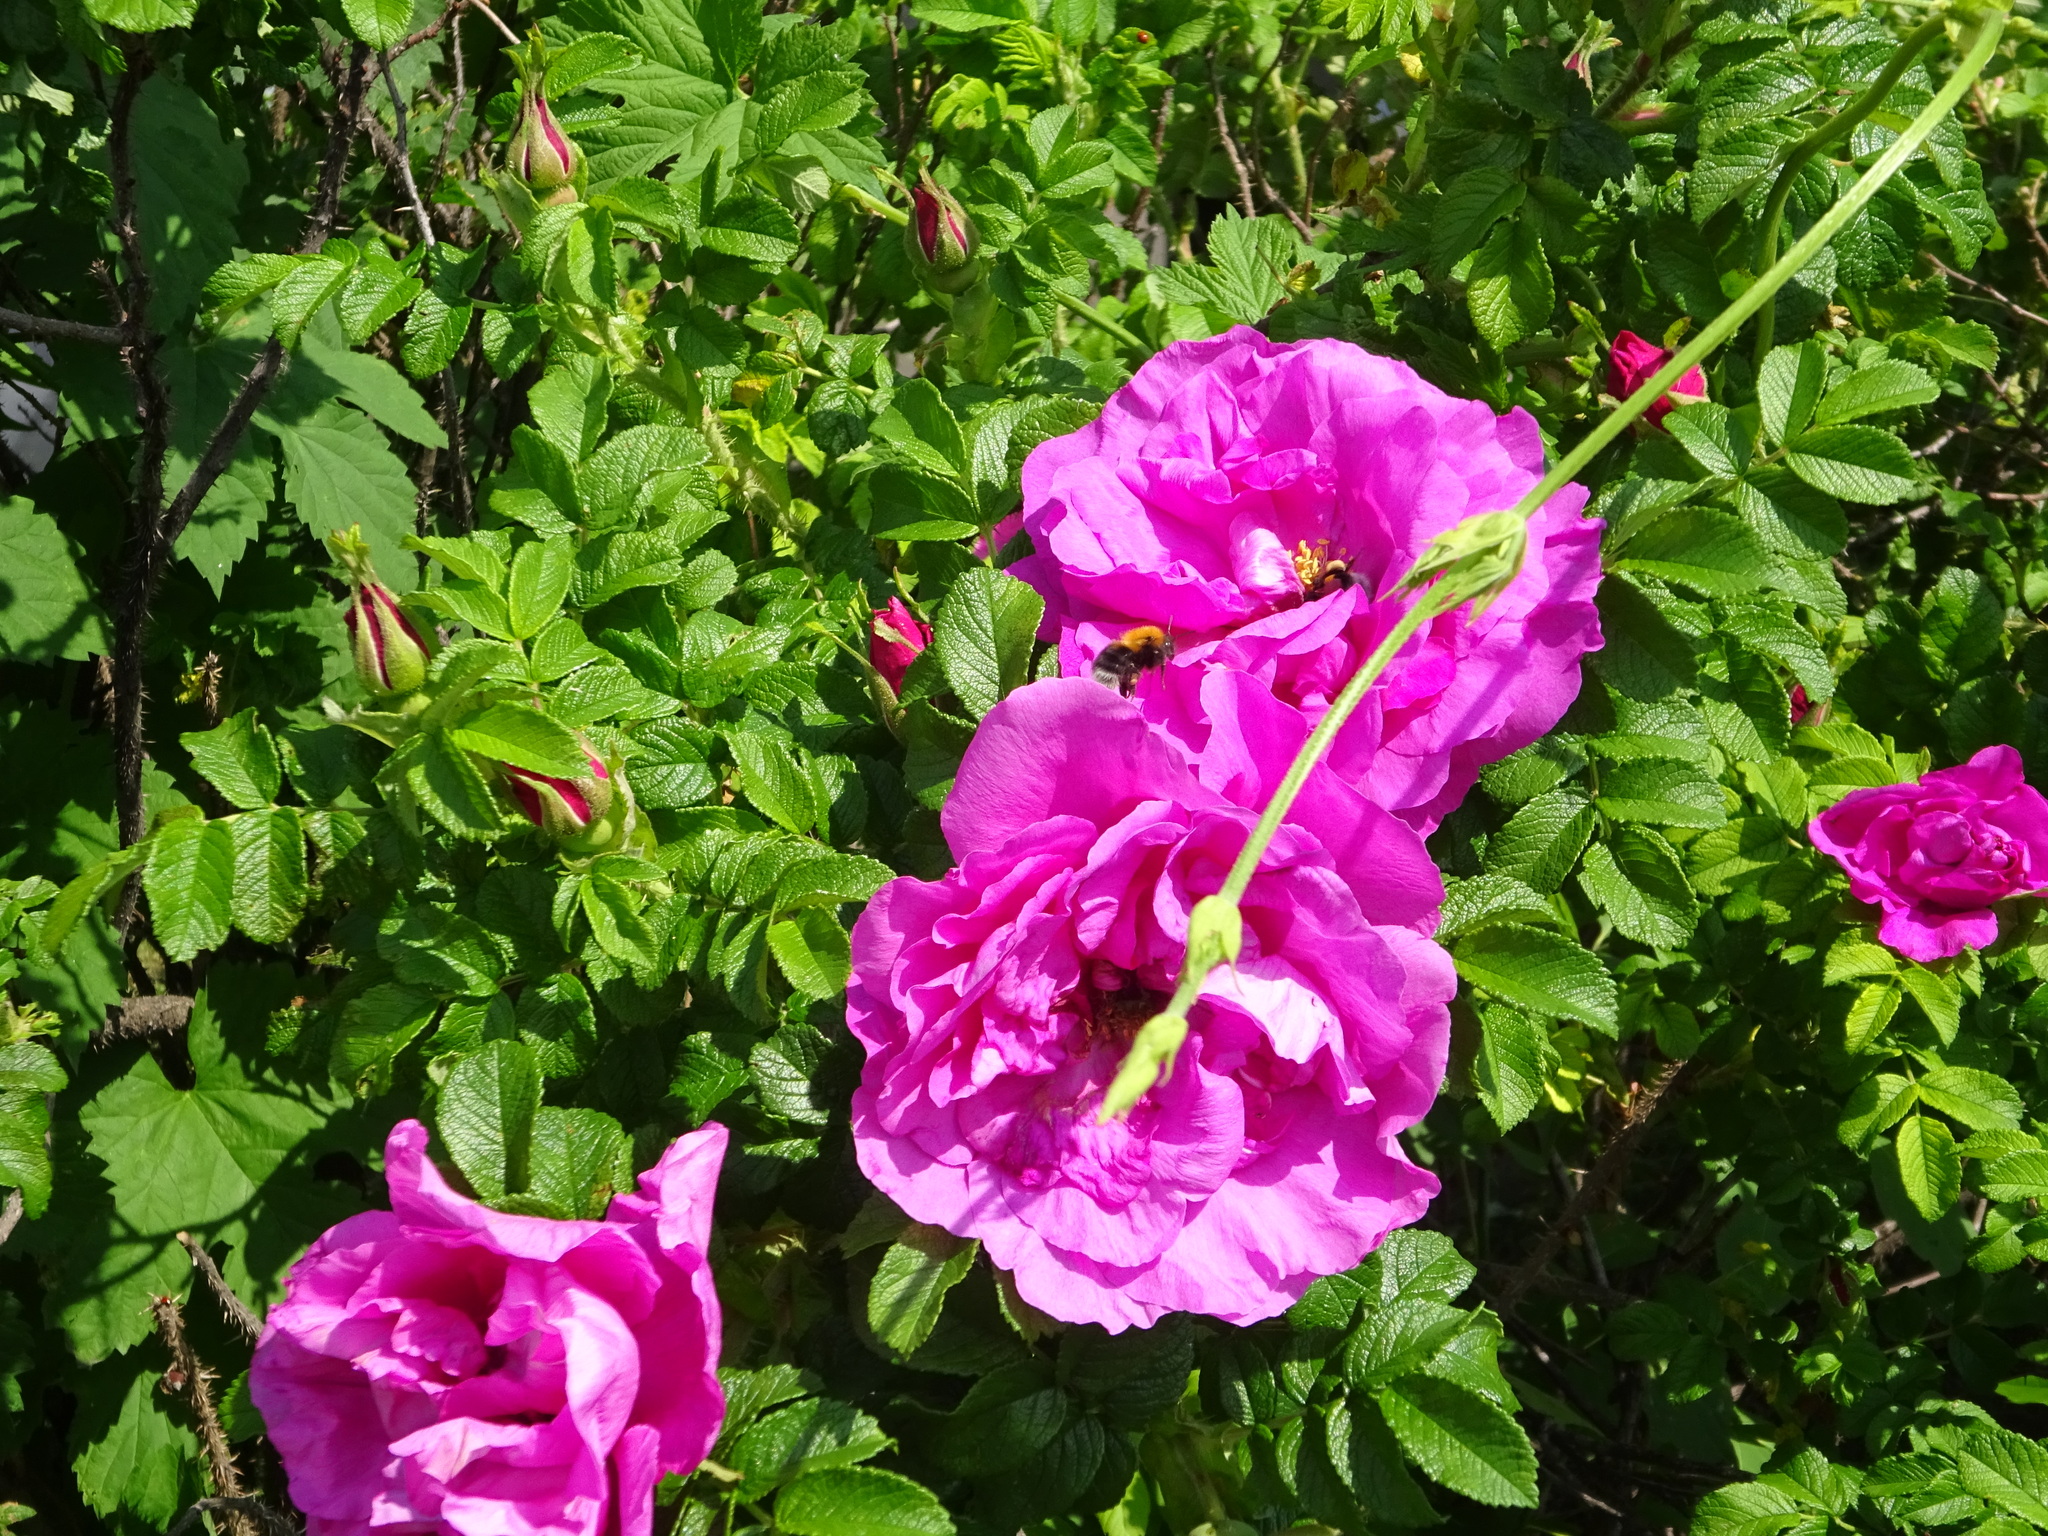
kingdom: Animalia
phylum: Arthropoda
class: Insecta
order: Hymenoptera
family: Apidae
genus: Bombus
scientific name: Bombus hypnorum
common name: New garden bumblebee
